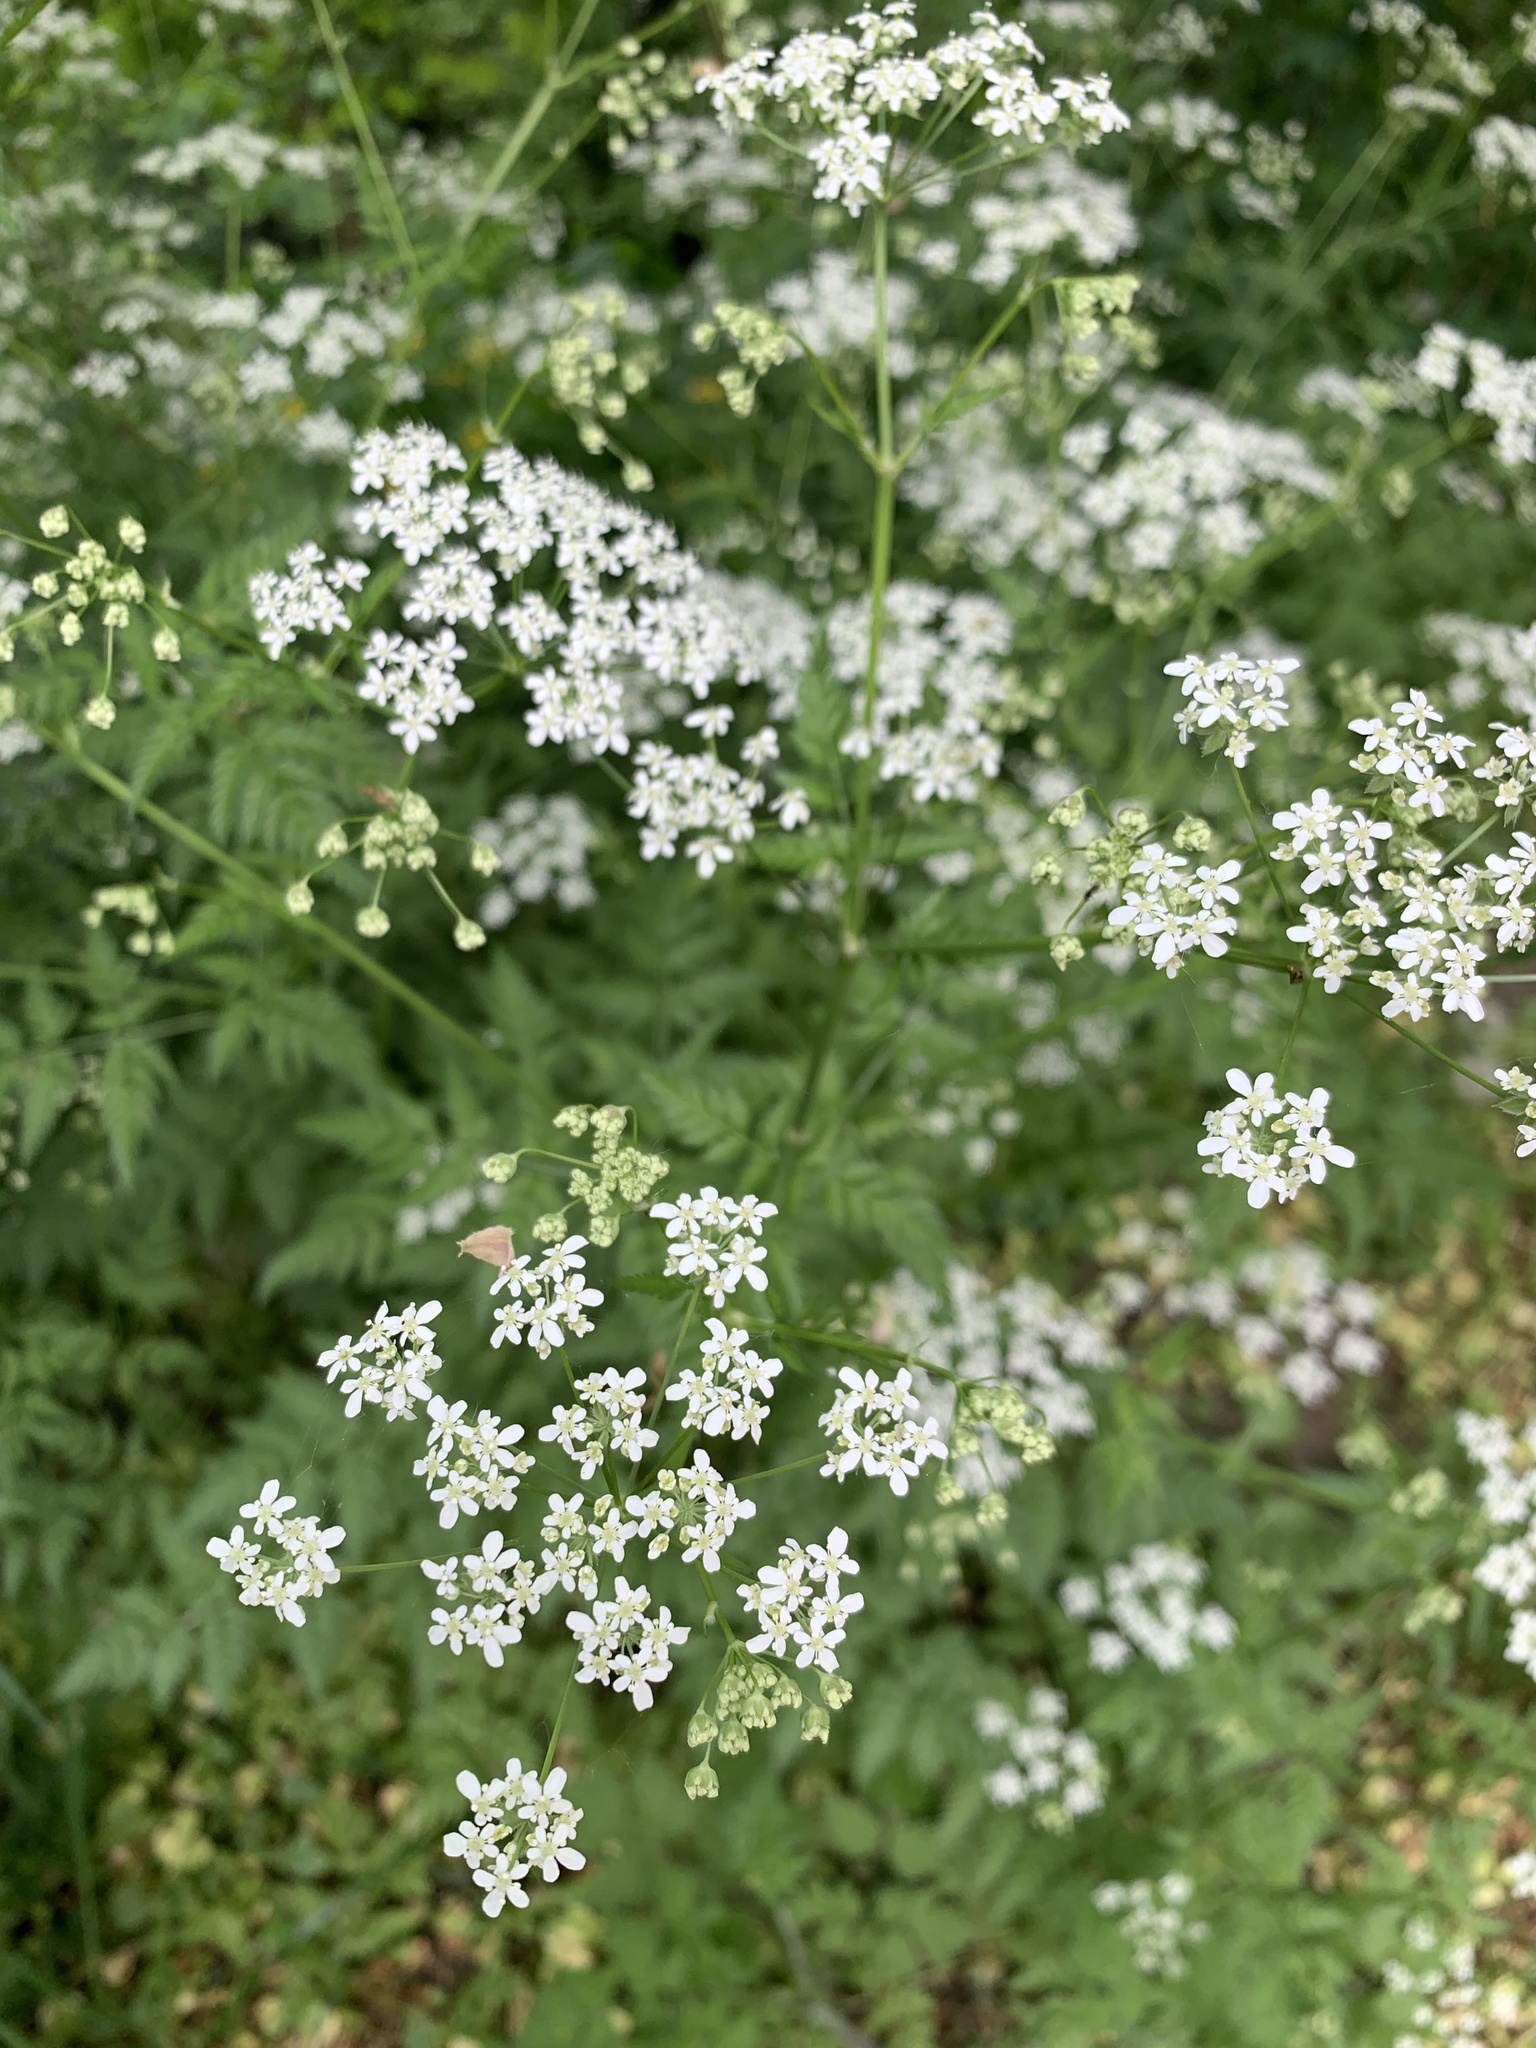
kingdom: Plantae
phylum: Tracheophyta
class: Magnoliopsida
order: Apiales
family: Apiaceae
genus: Anthriscus
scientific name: Anthriscus sylvestris
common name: Cow parsley
